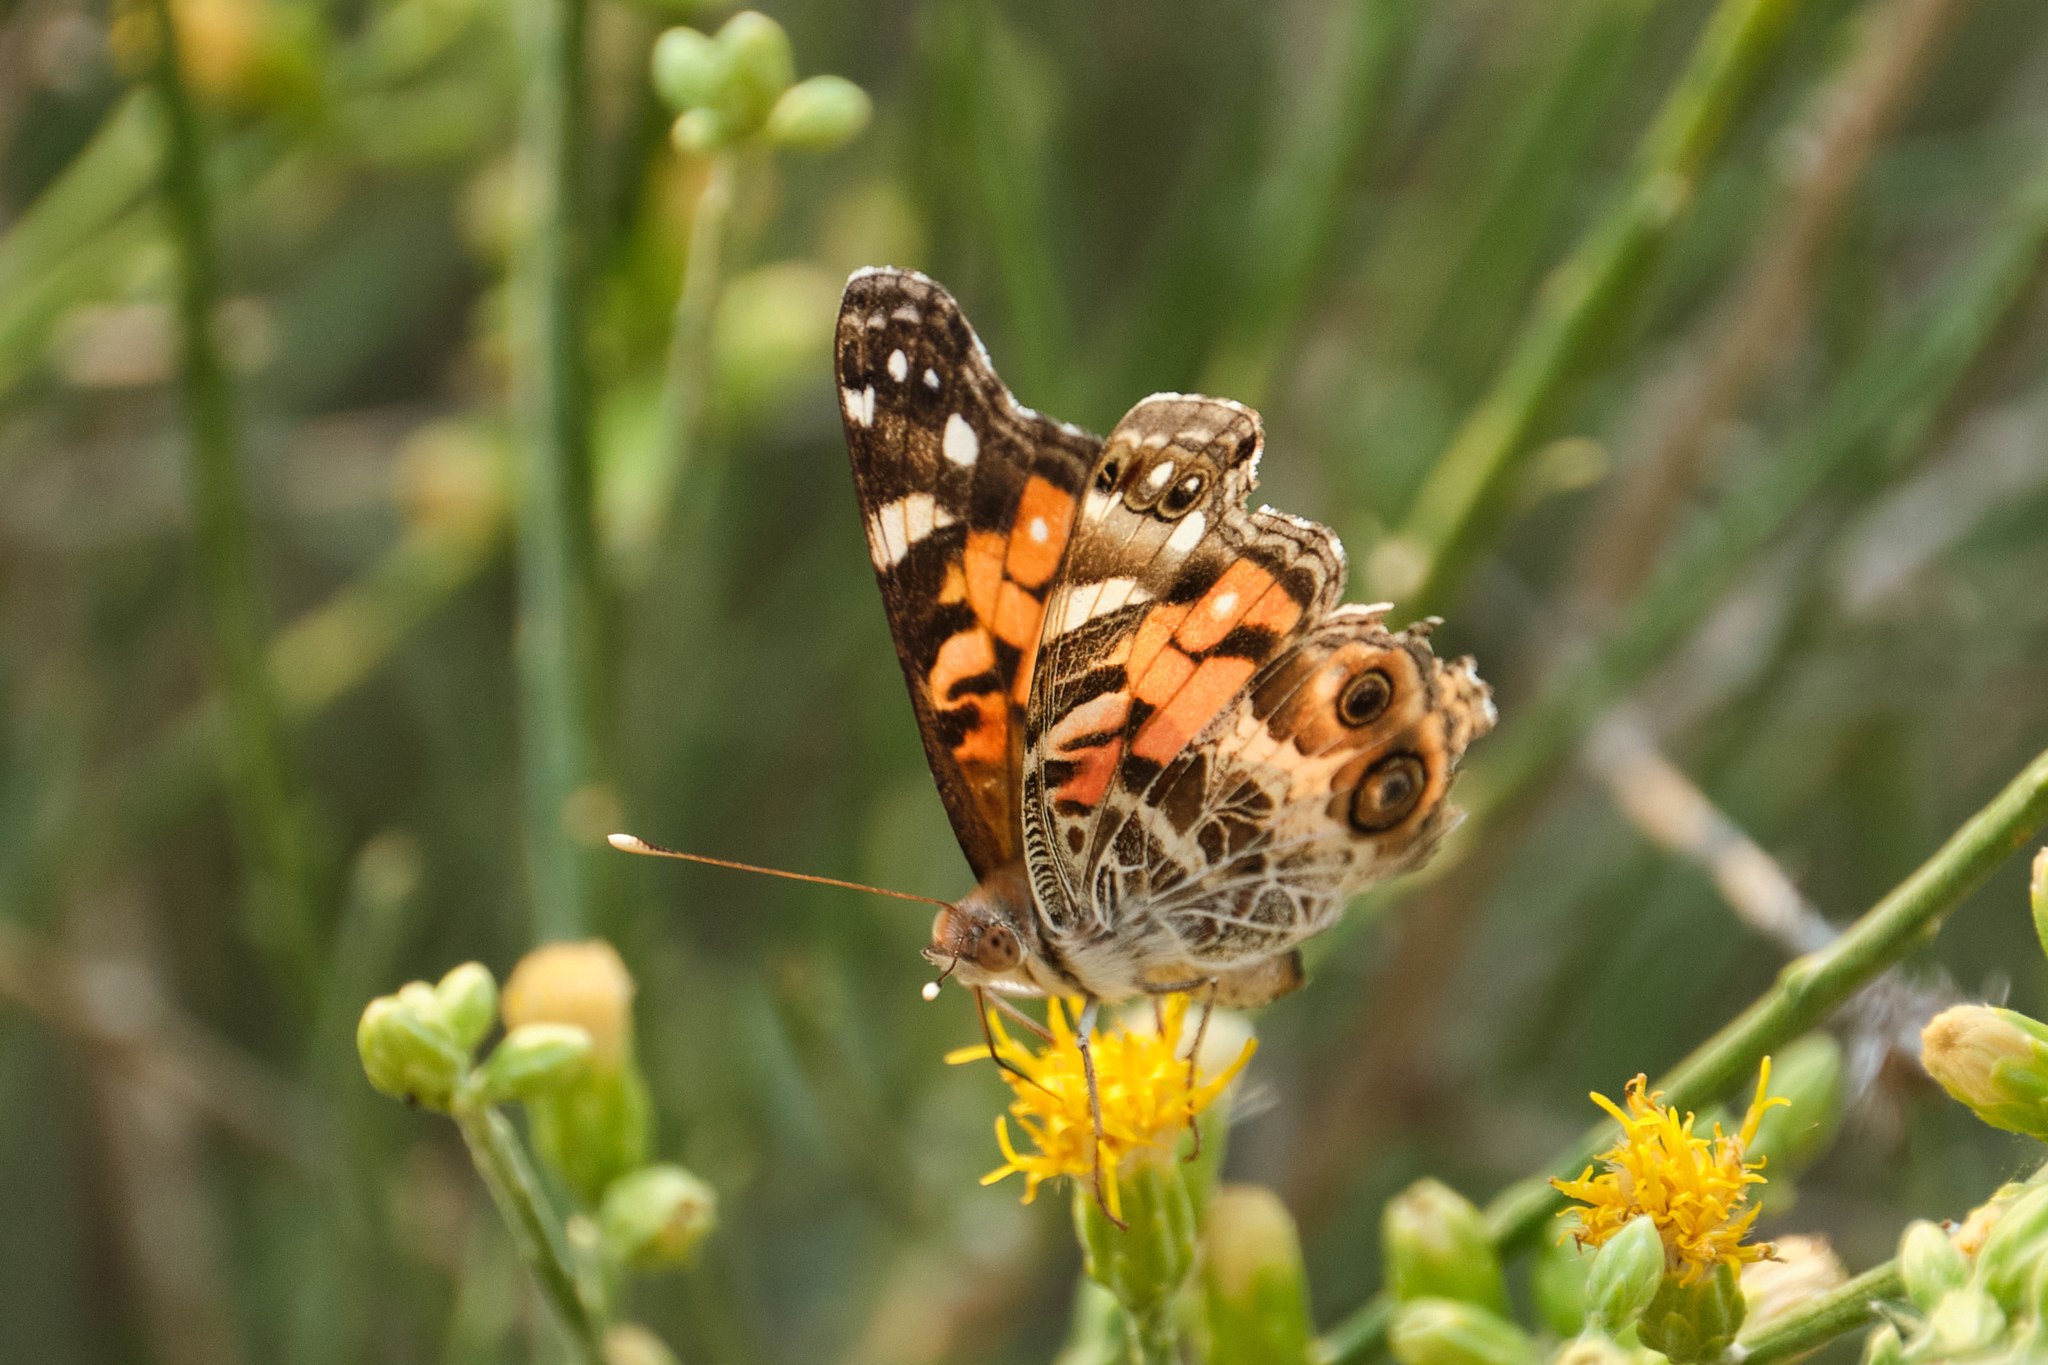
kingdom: Animalia
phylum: Arthropoda
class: Insecta
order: Lepidoptera
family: Nymphalidae
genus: Vanessa
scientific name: Vanessa virginiensis
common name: American lady
